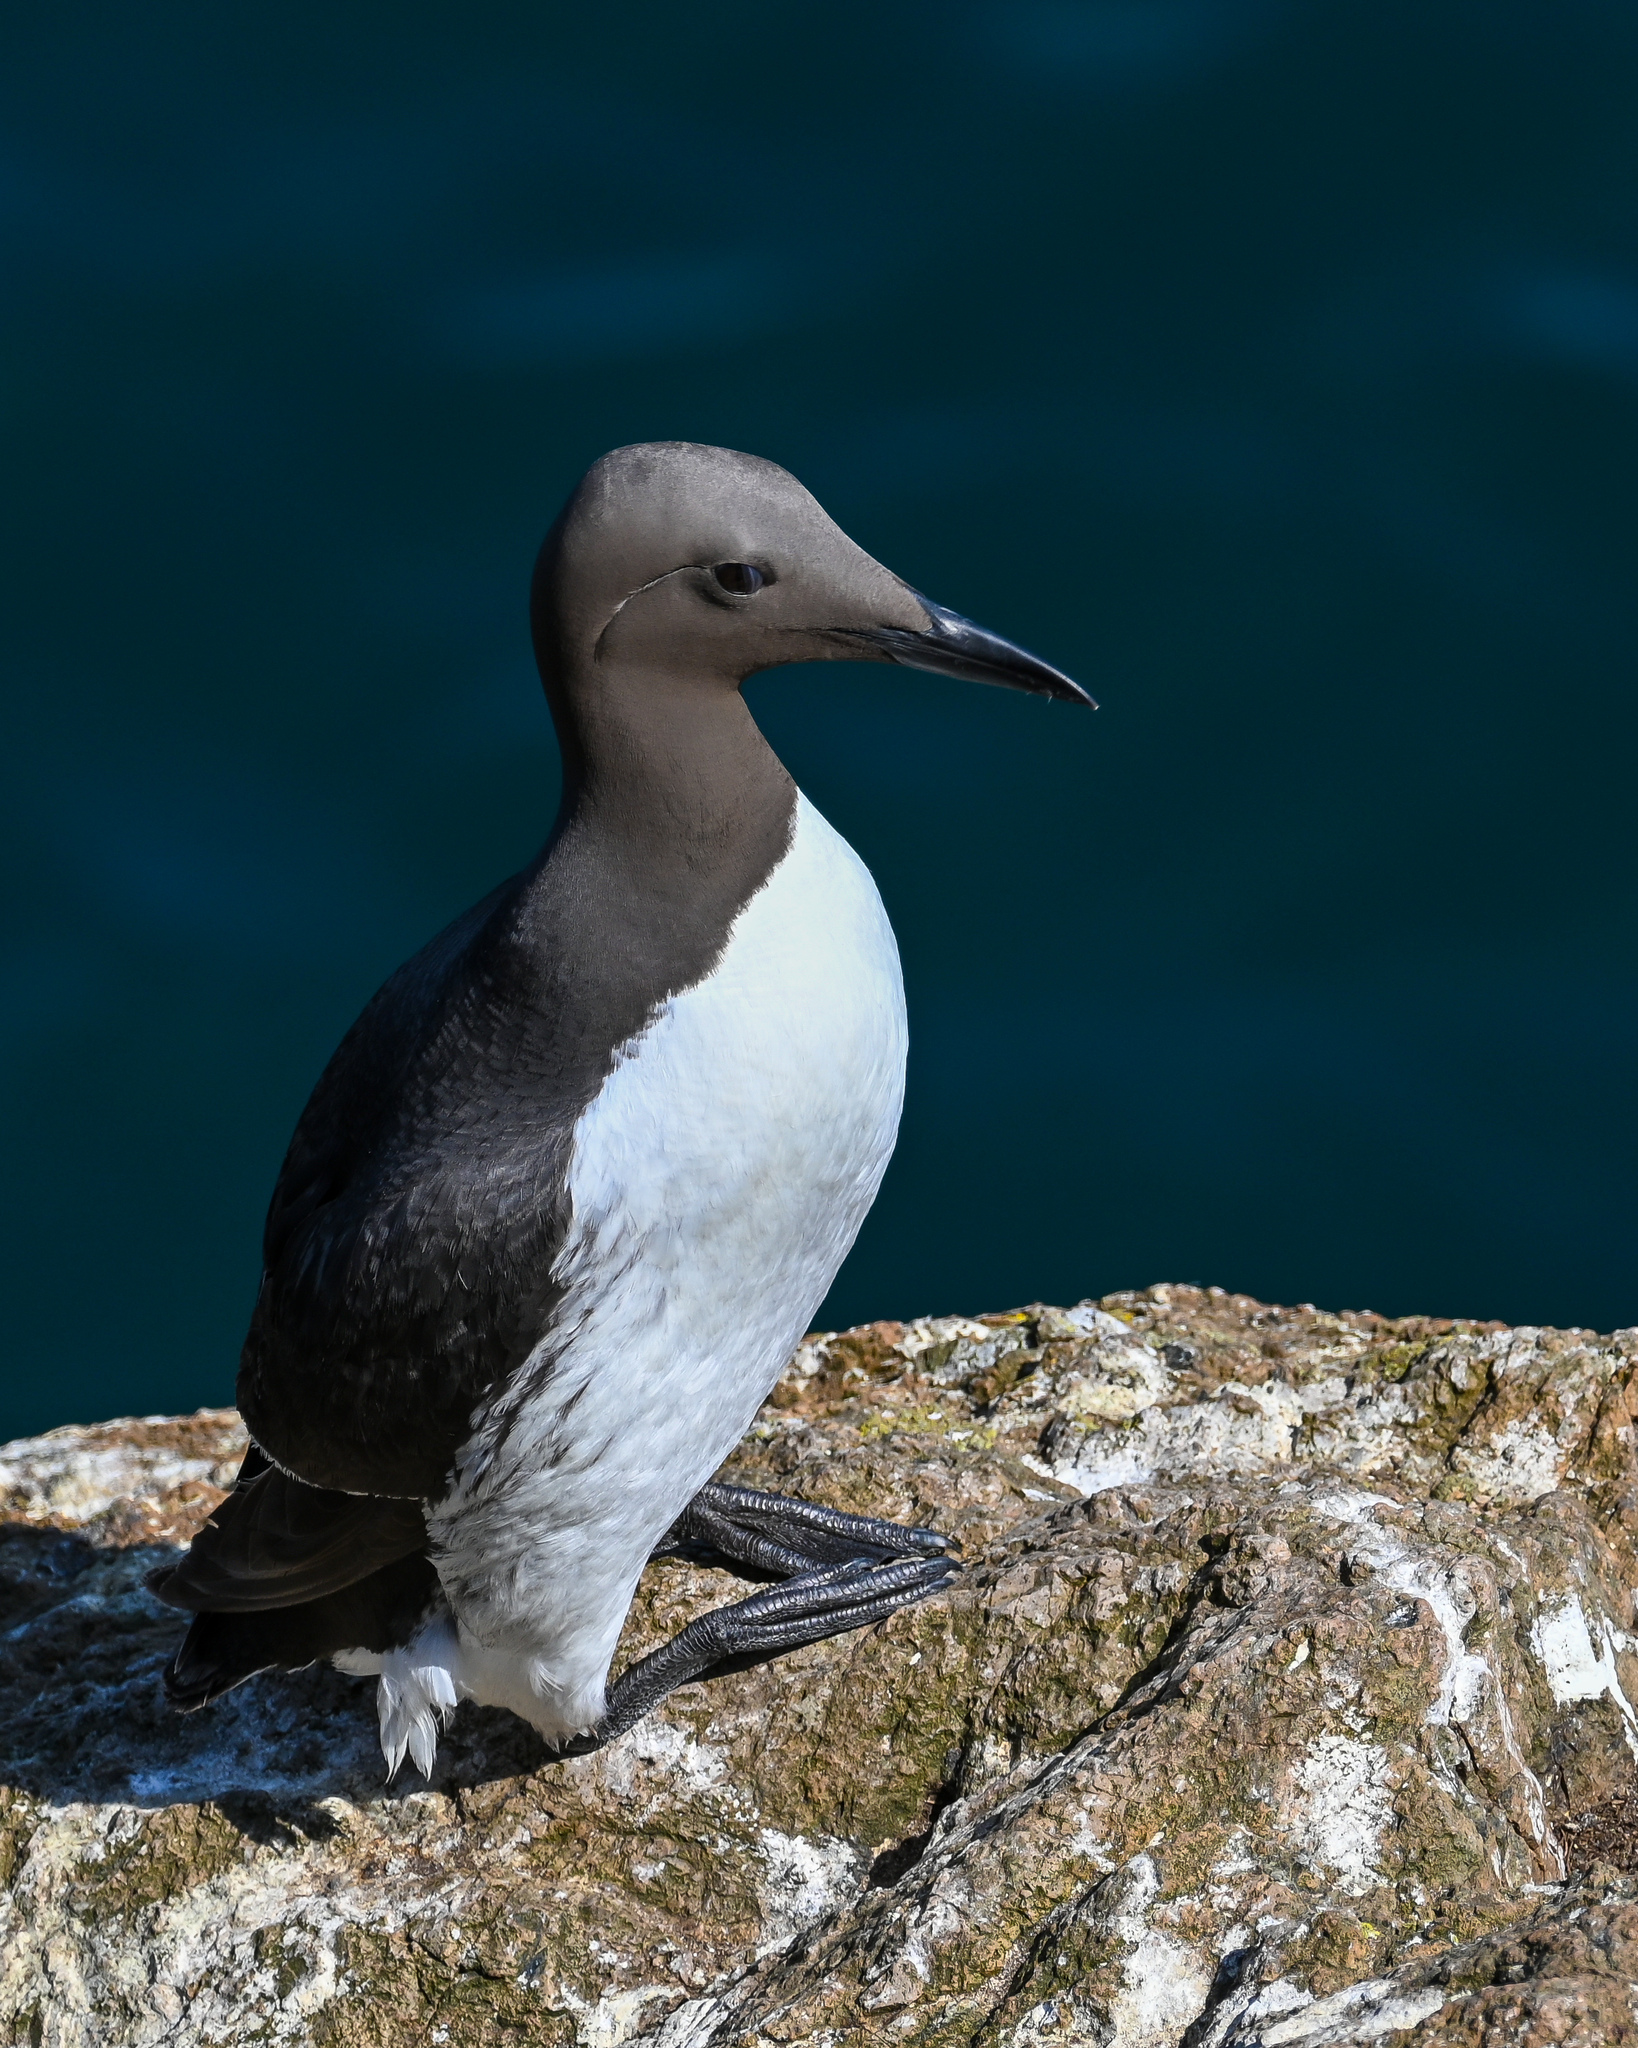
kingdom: Animalia
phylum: Chordata
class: Aves
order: Charadriiformes
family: Alcidae
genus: Uria
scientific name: Uria aalge
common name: Common murre
